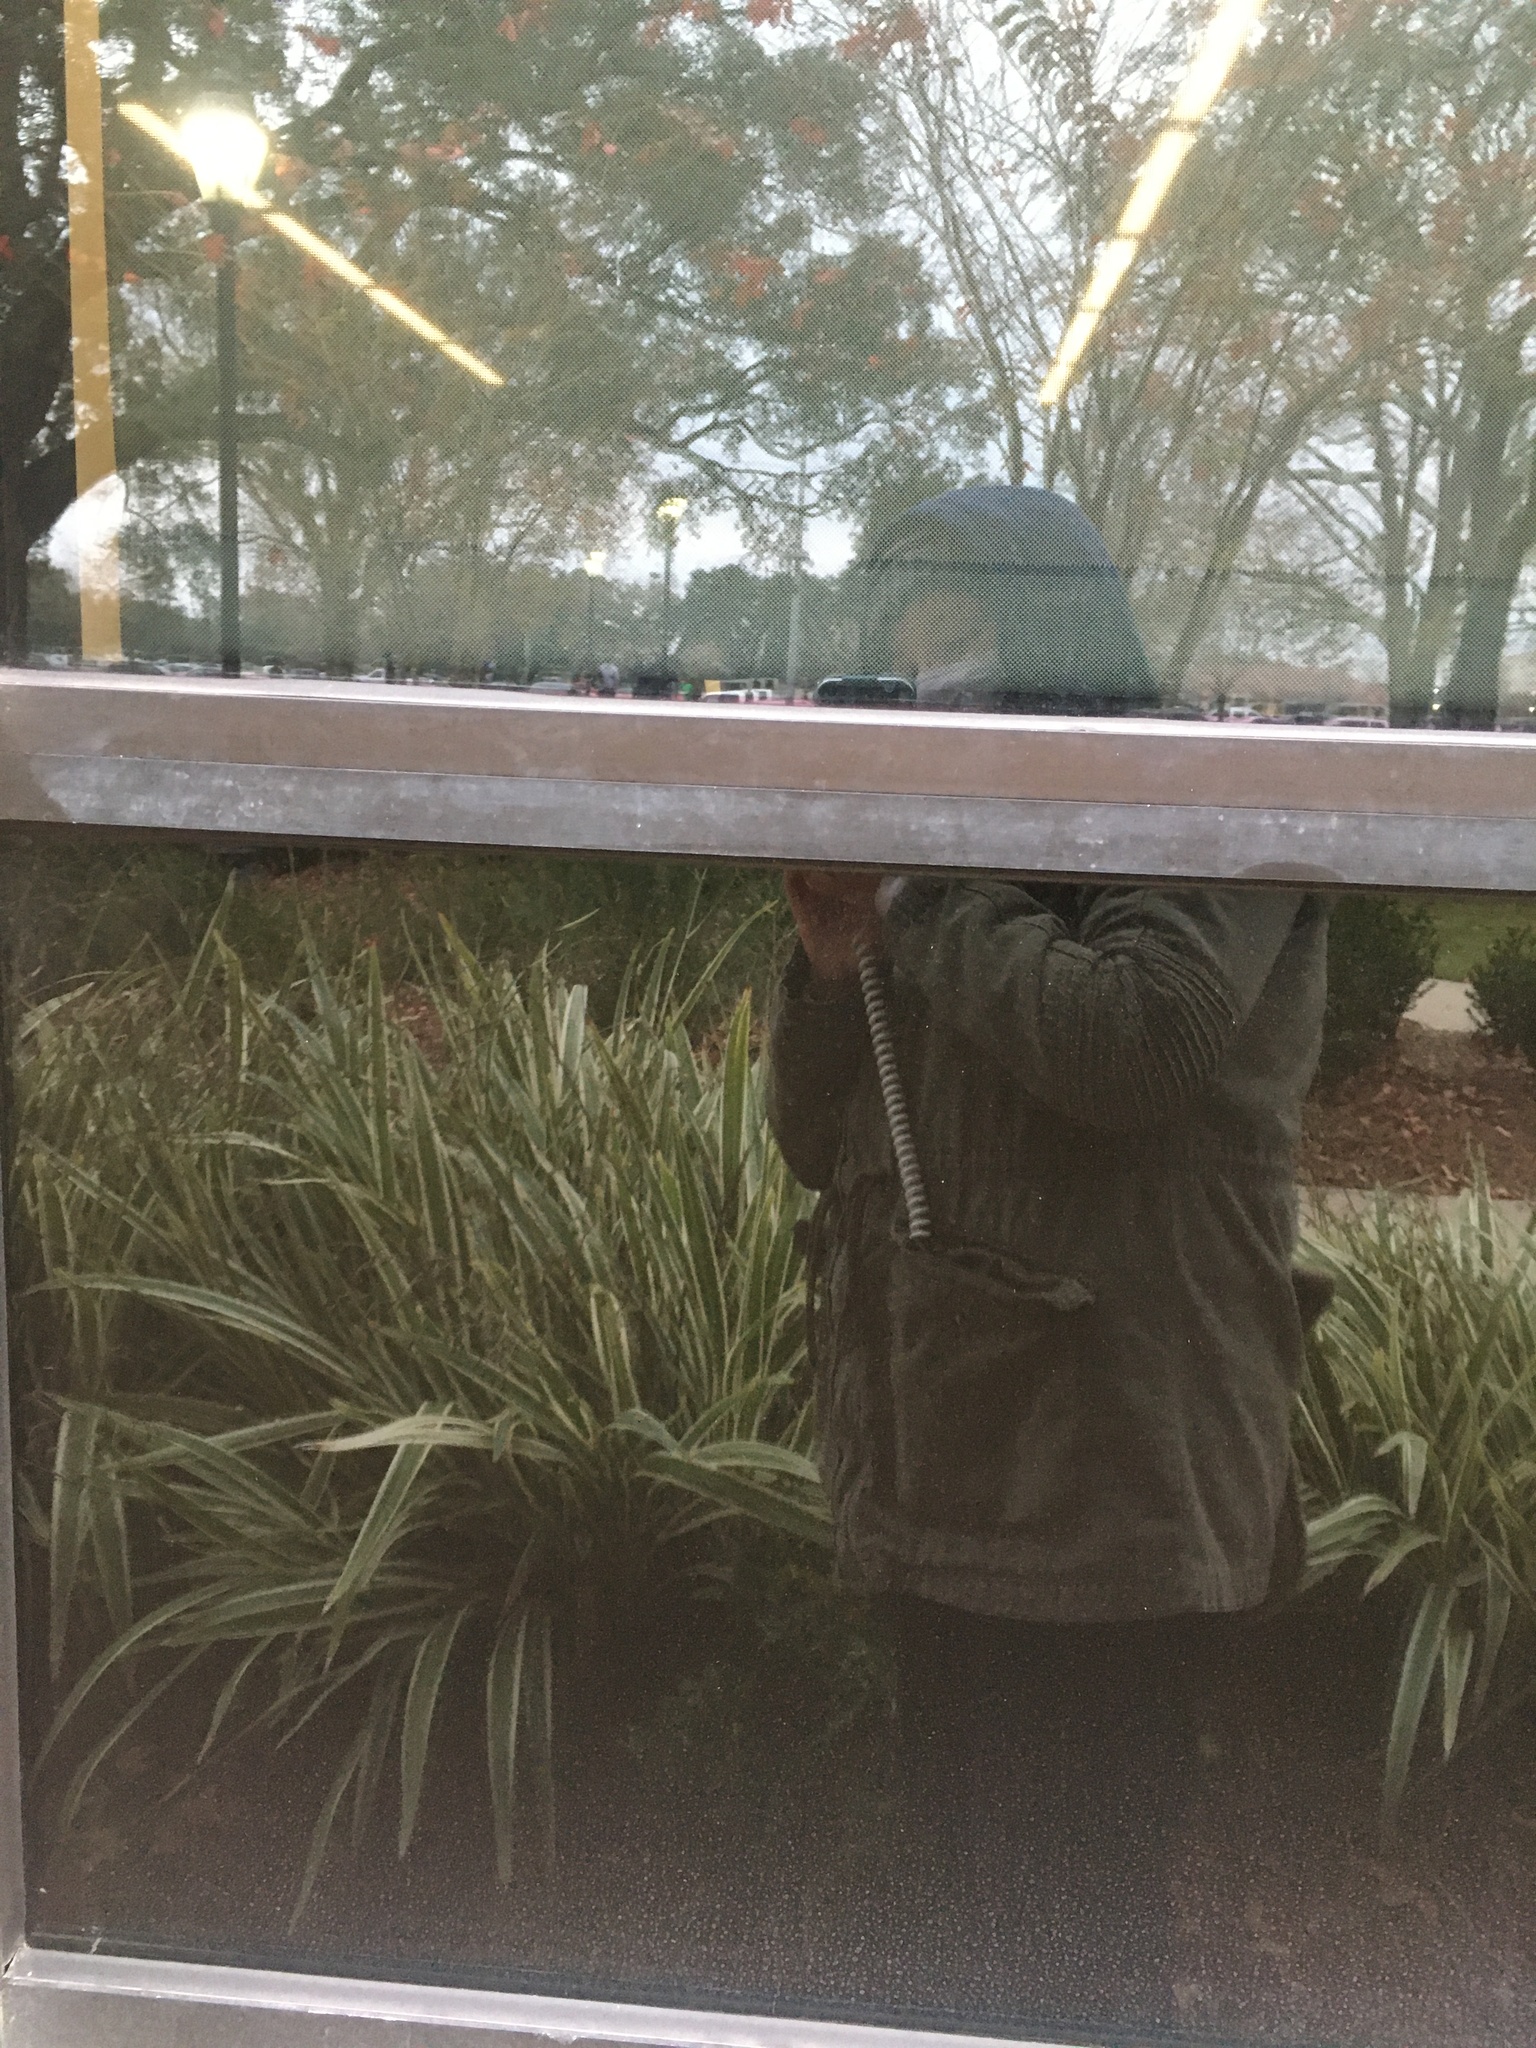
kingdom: Animalia
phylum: Chordata
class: Aves
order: Piciformes
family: Picidae
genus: Sphyrapicus
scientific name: Sphyrapicus varius
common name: Yellow-bellied sapsucker
